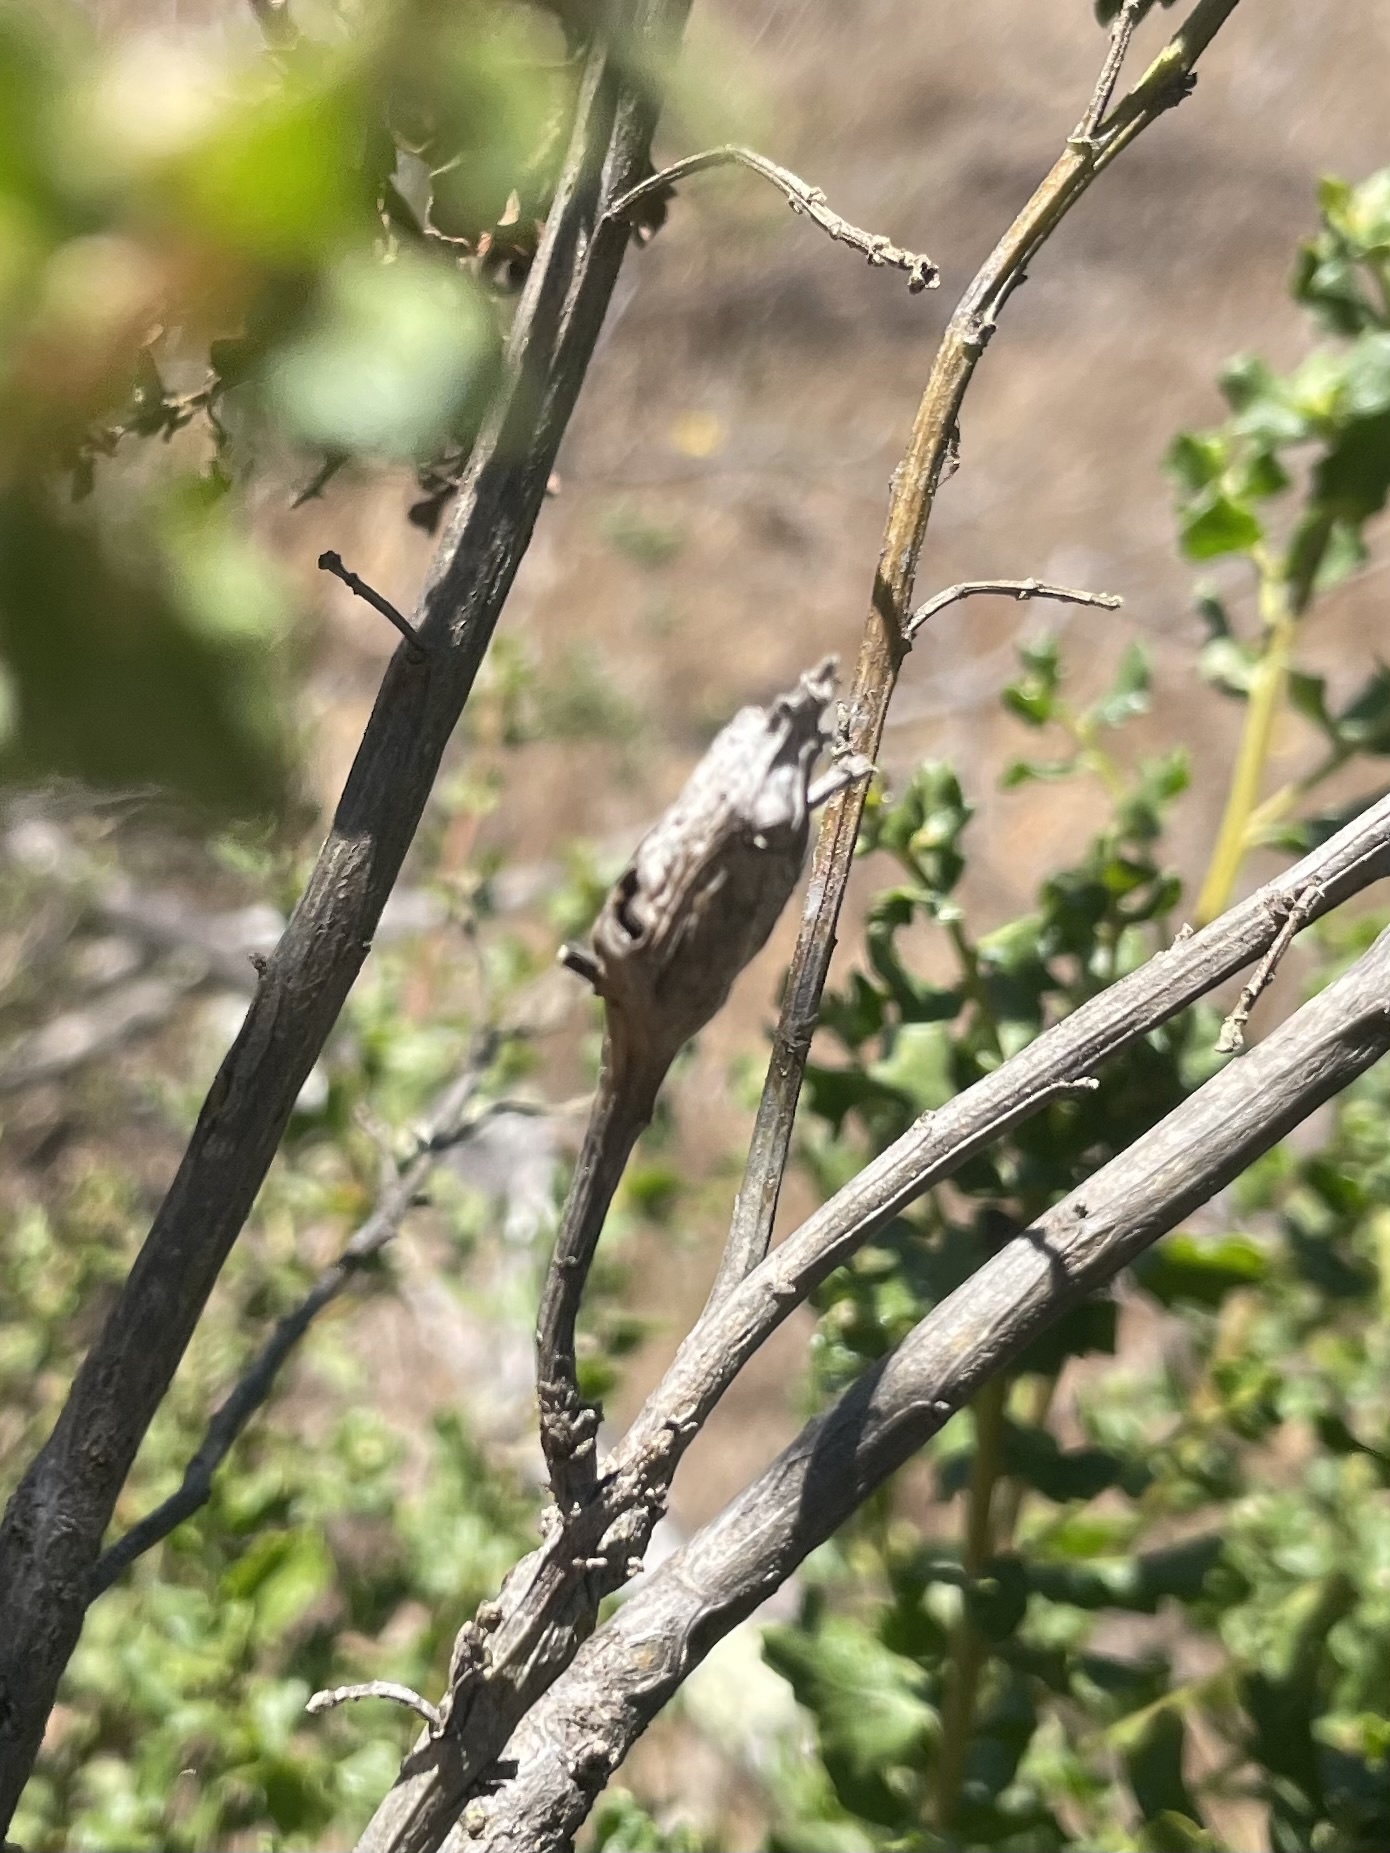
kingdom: Animalia
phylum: Arthropoda
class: Insecta
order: Lepidoptera
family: Gelechiidae
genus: Gnorimoschema
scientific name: Gnorimoschema baccharisella
